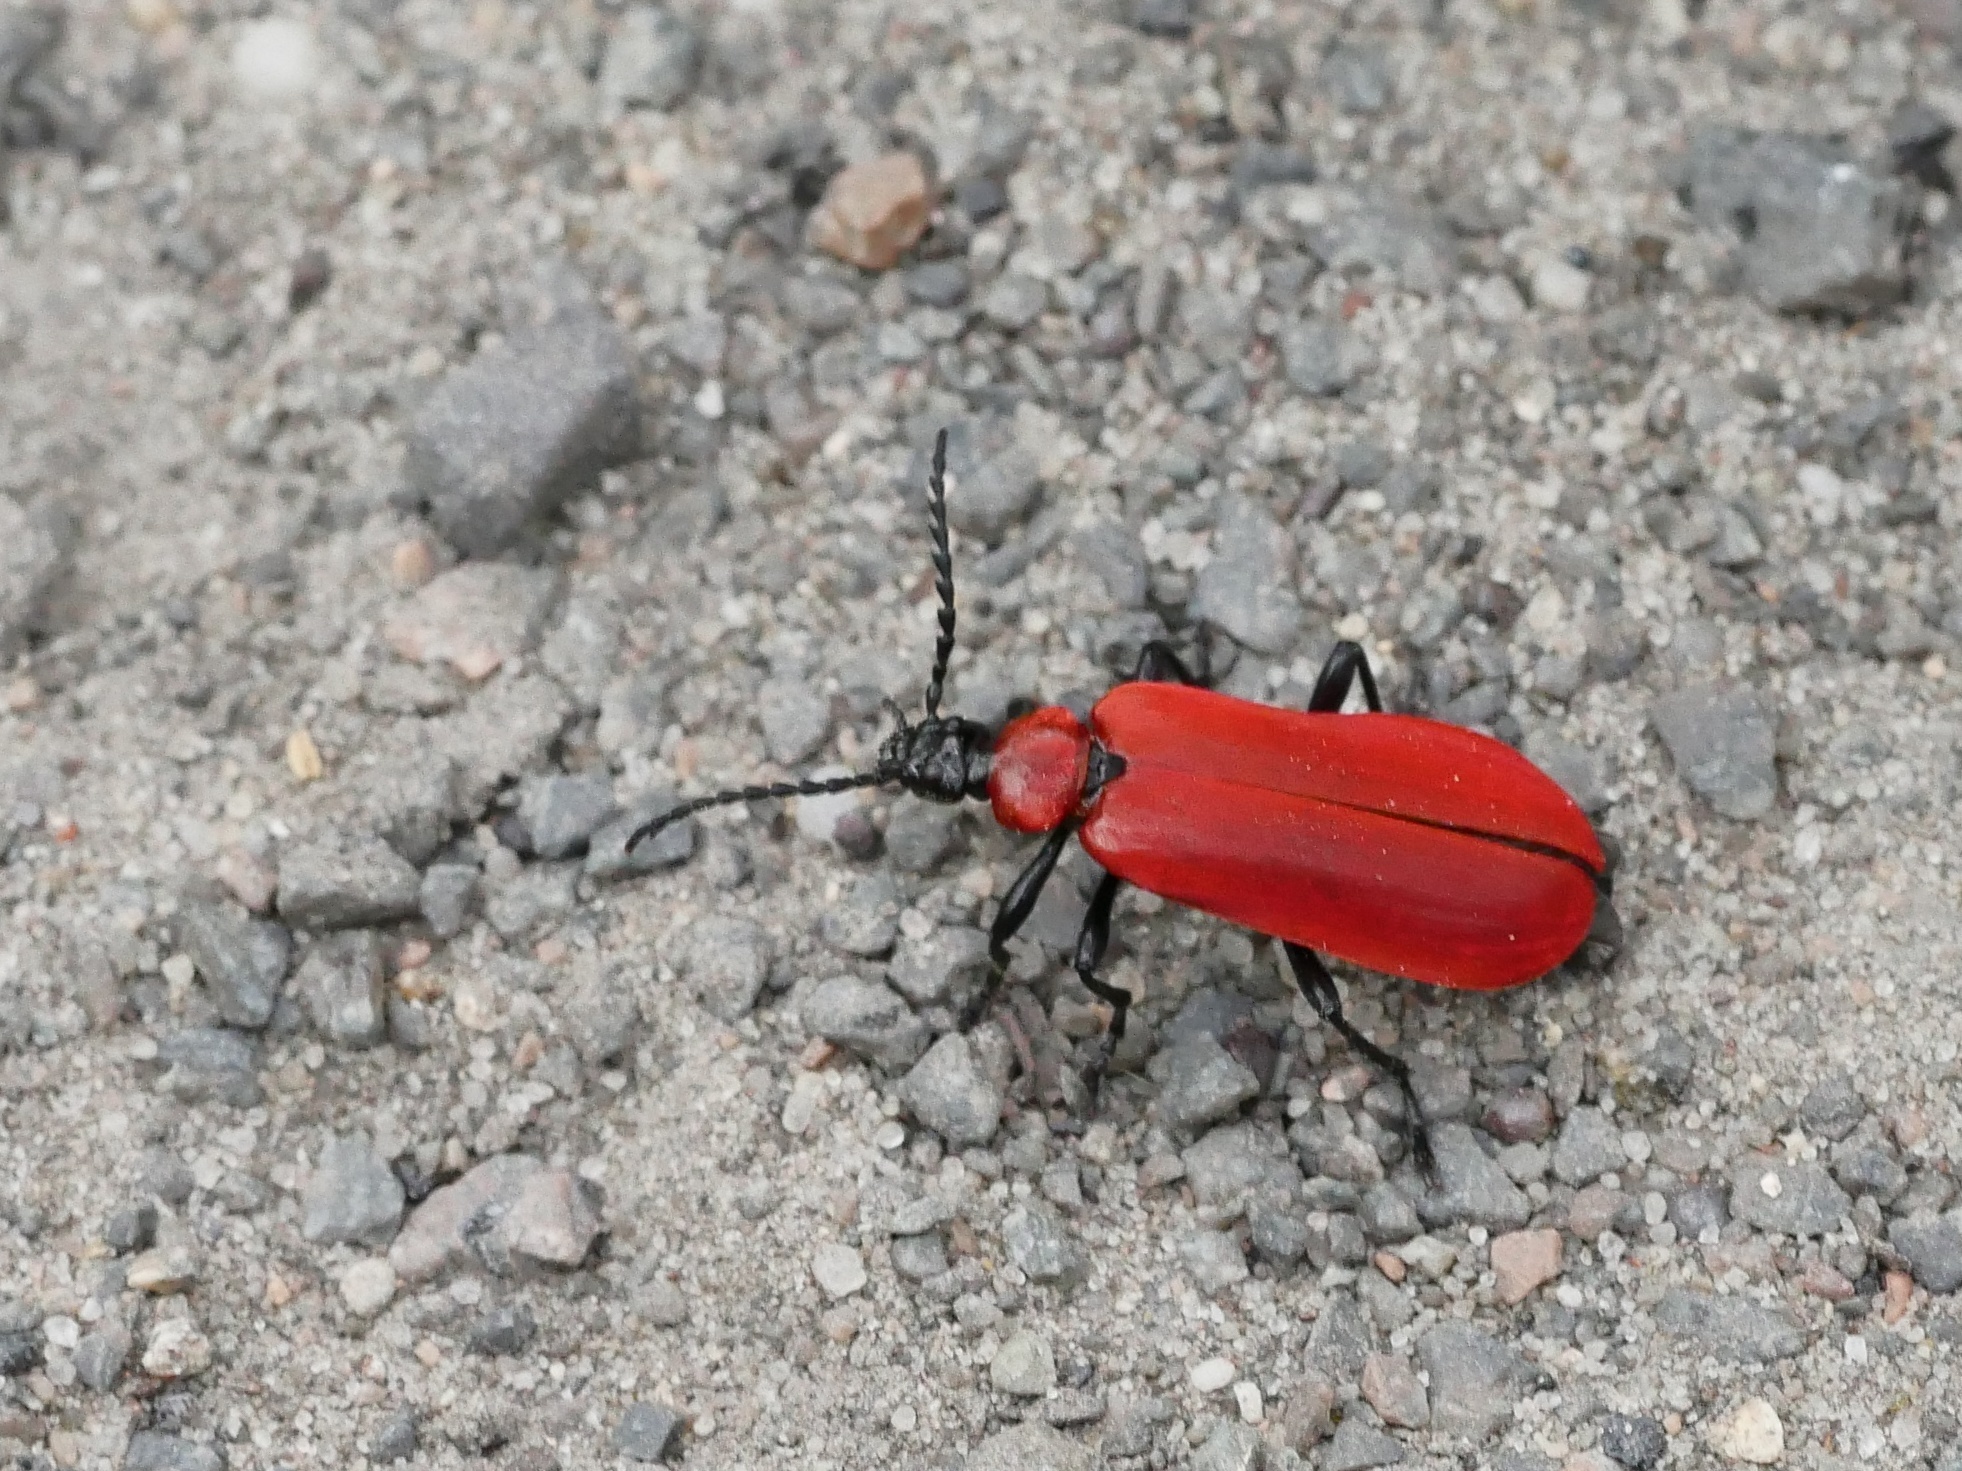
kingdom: Animalia
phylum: Arthropoda
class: Insecta
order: Coleoptera
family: Pyrochroidae
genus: Pyrochroa
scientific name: Pyrochroa coccinea
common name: Black-headed cardinal beetle
